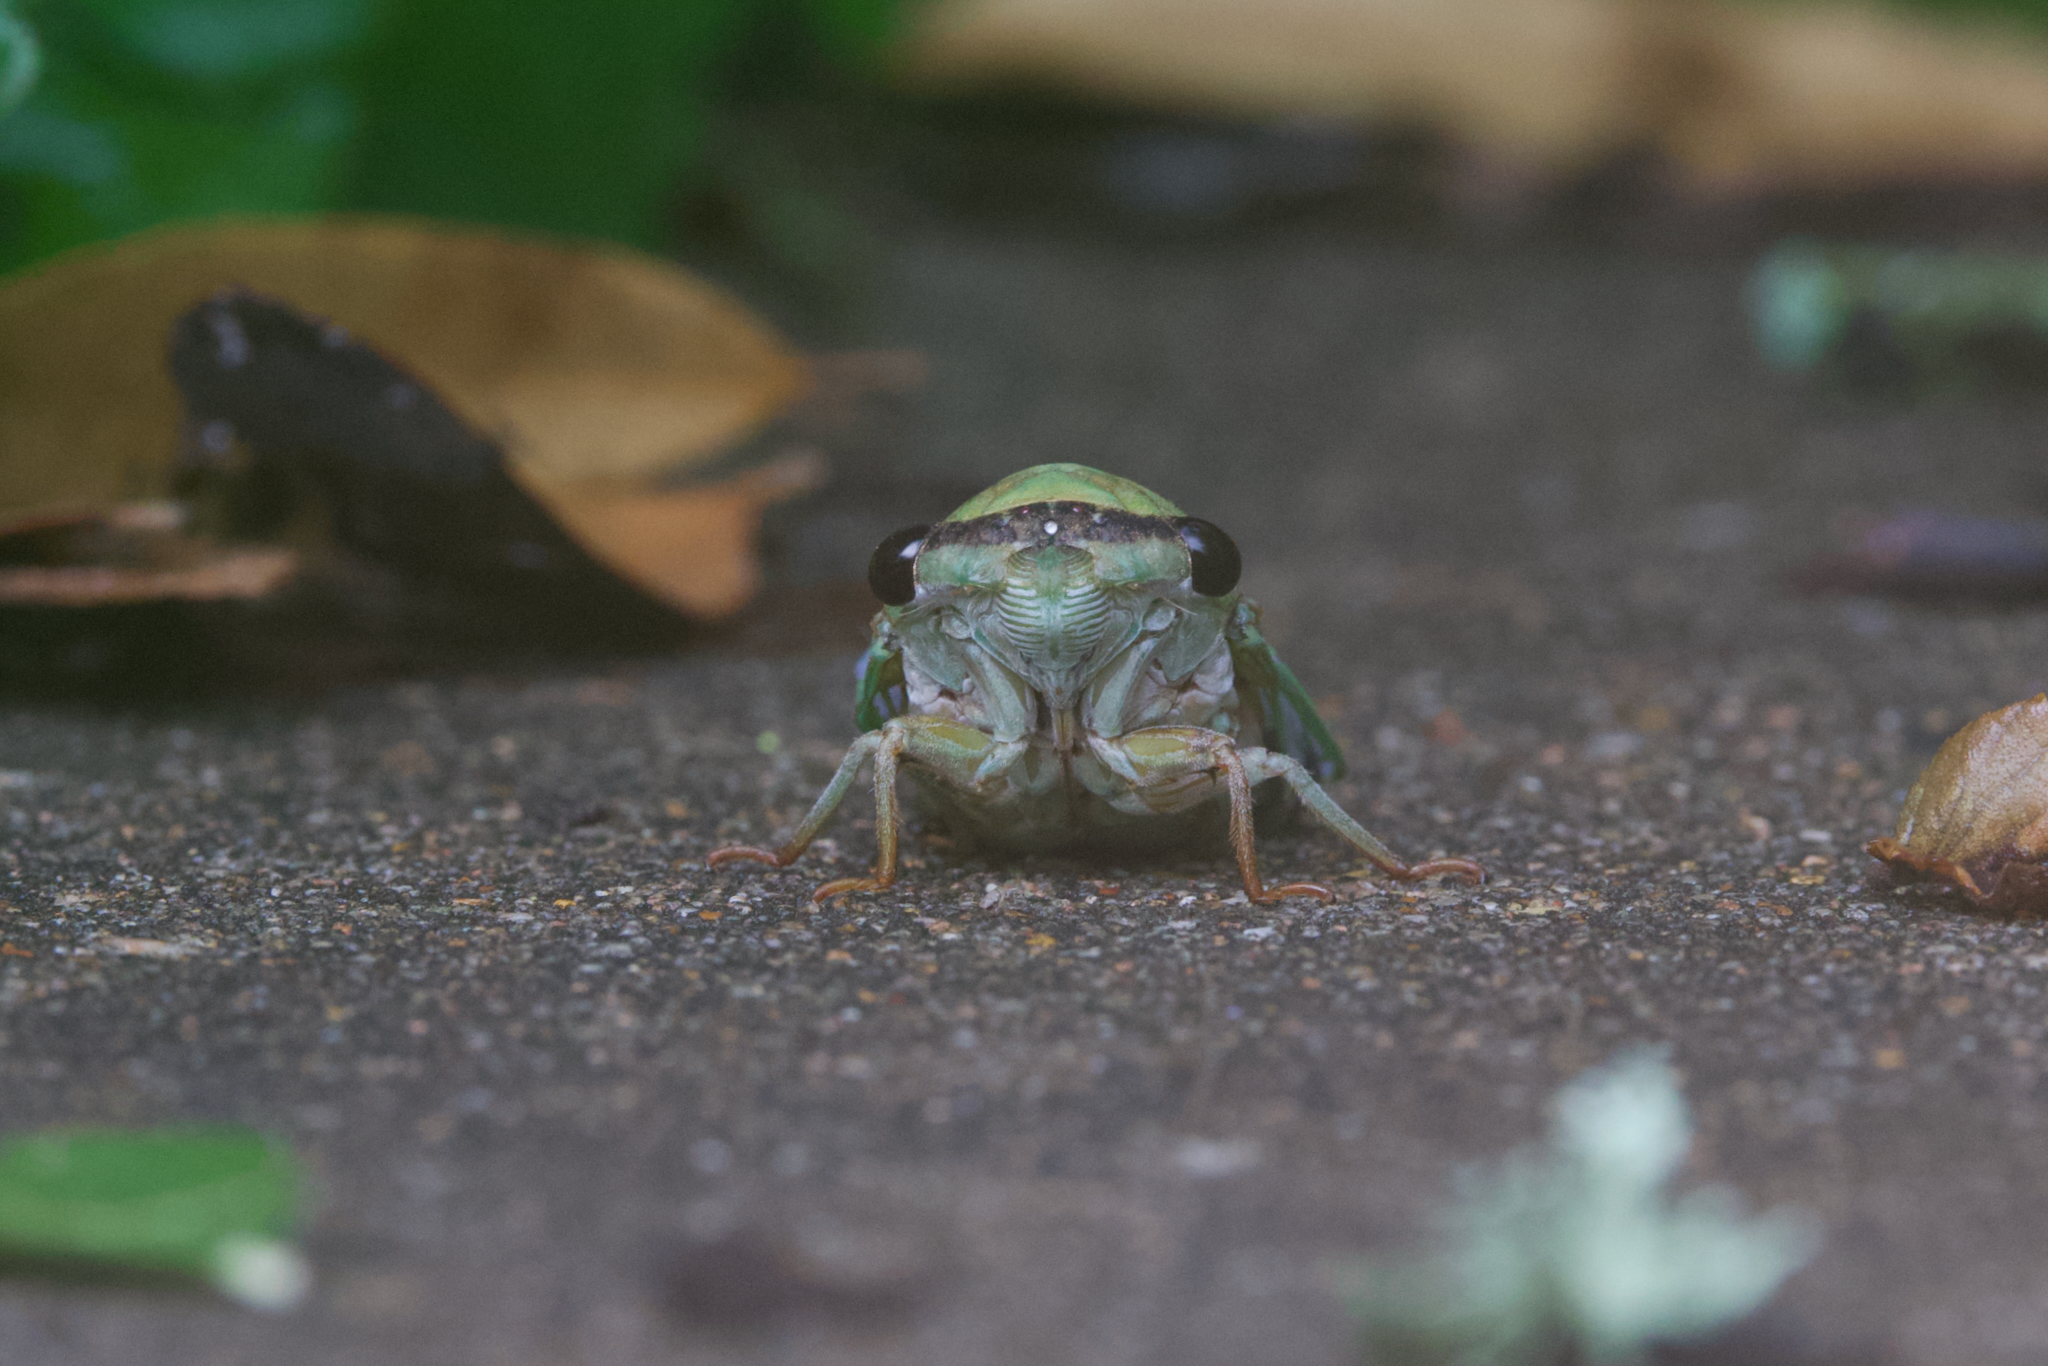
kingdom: Animalia
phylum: Arthropoda
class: Insecta
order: Hemiptera
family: Cicadidae
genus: Neotibicen
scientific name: Neotibicen superbus
